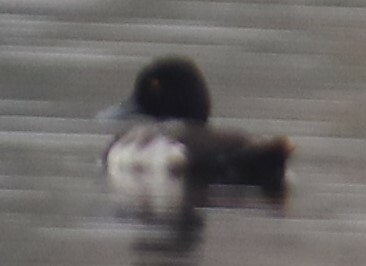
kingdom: Animalia
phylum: Chordata
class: Aves
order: Anseriformes
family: Anatidae
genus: Aythya
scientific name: Aythya affinis
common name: Lesser scaup
